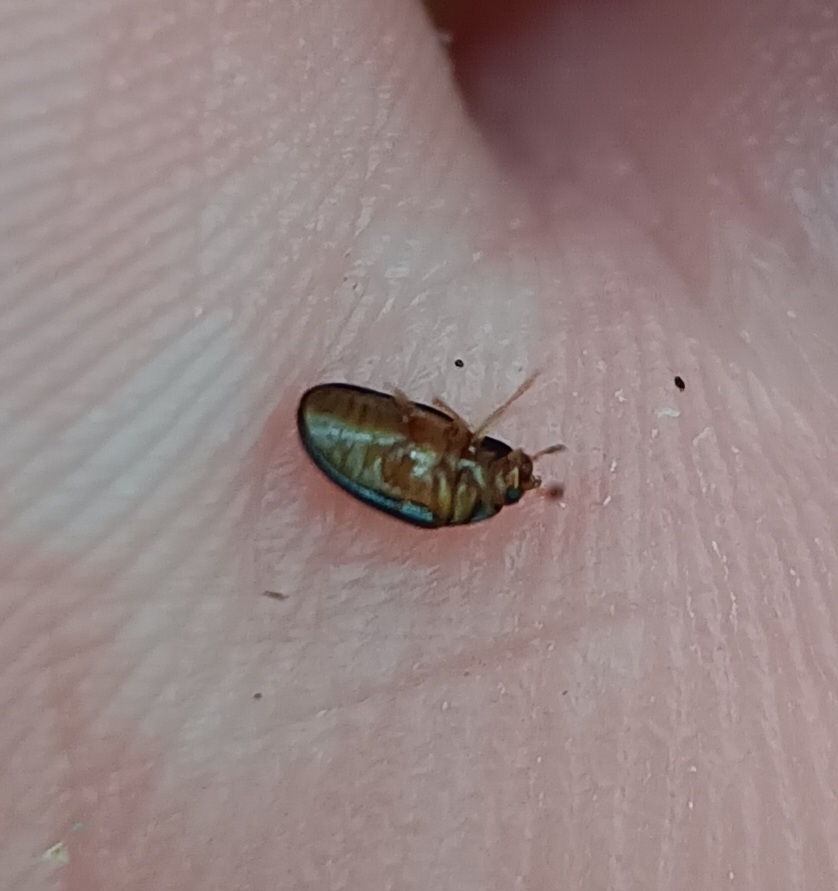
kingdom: Animalia
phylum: Arthropoda
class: Insecta
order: Coleoptera
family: Erotylidae
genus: Tritoma
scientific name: Tritoma biguttata
